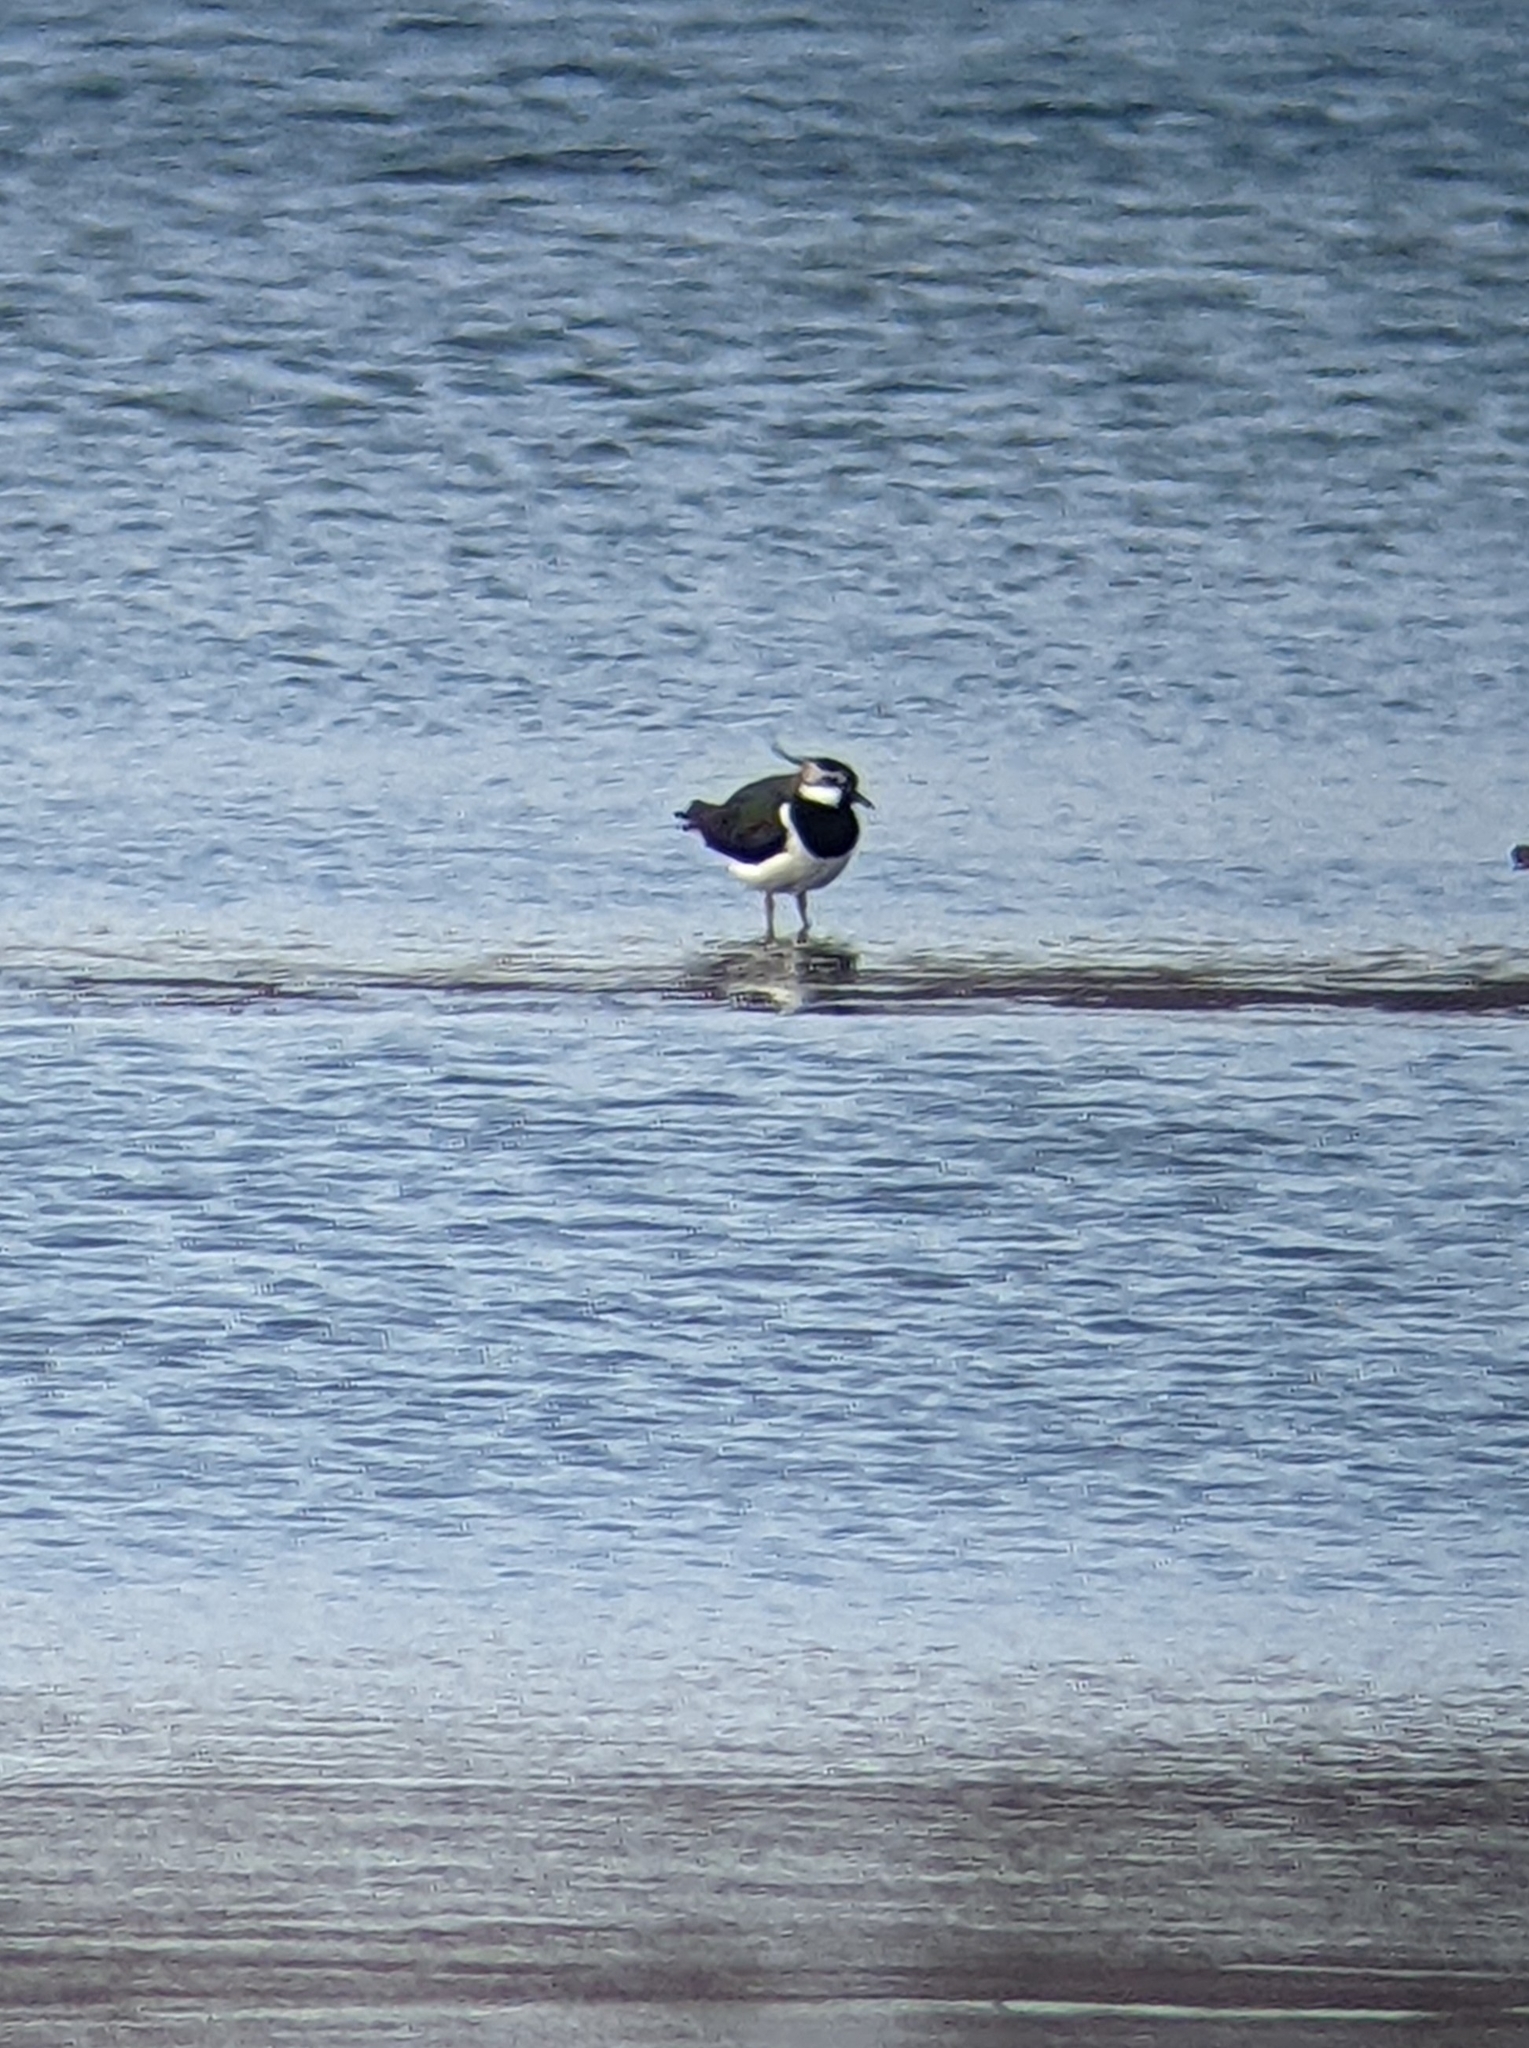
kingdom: Animalia
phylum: Chordata
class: Aves
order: Charadriiformes
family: Charadriidae
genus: Vanellus
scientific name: Vanellus vanellus
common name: Northern lapwing
